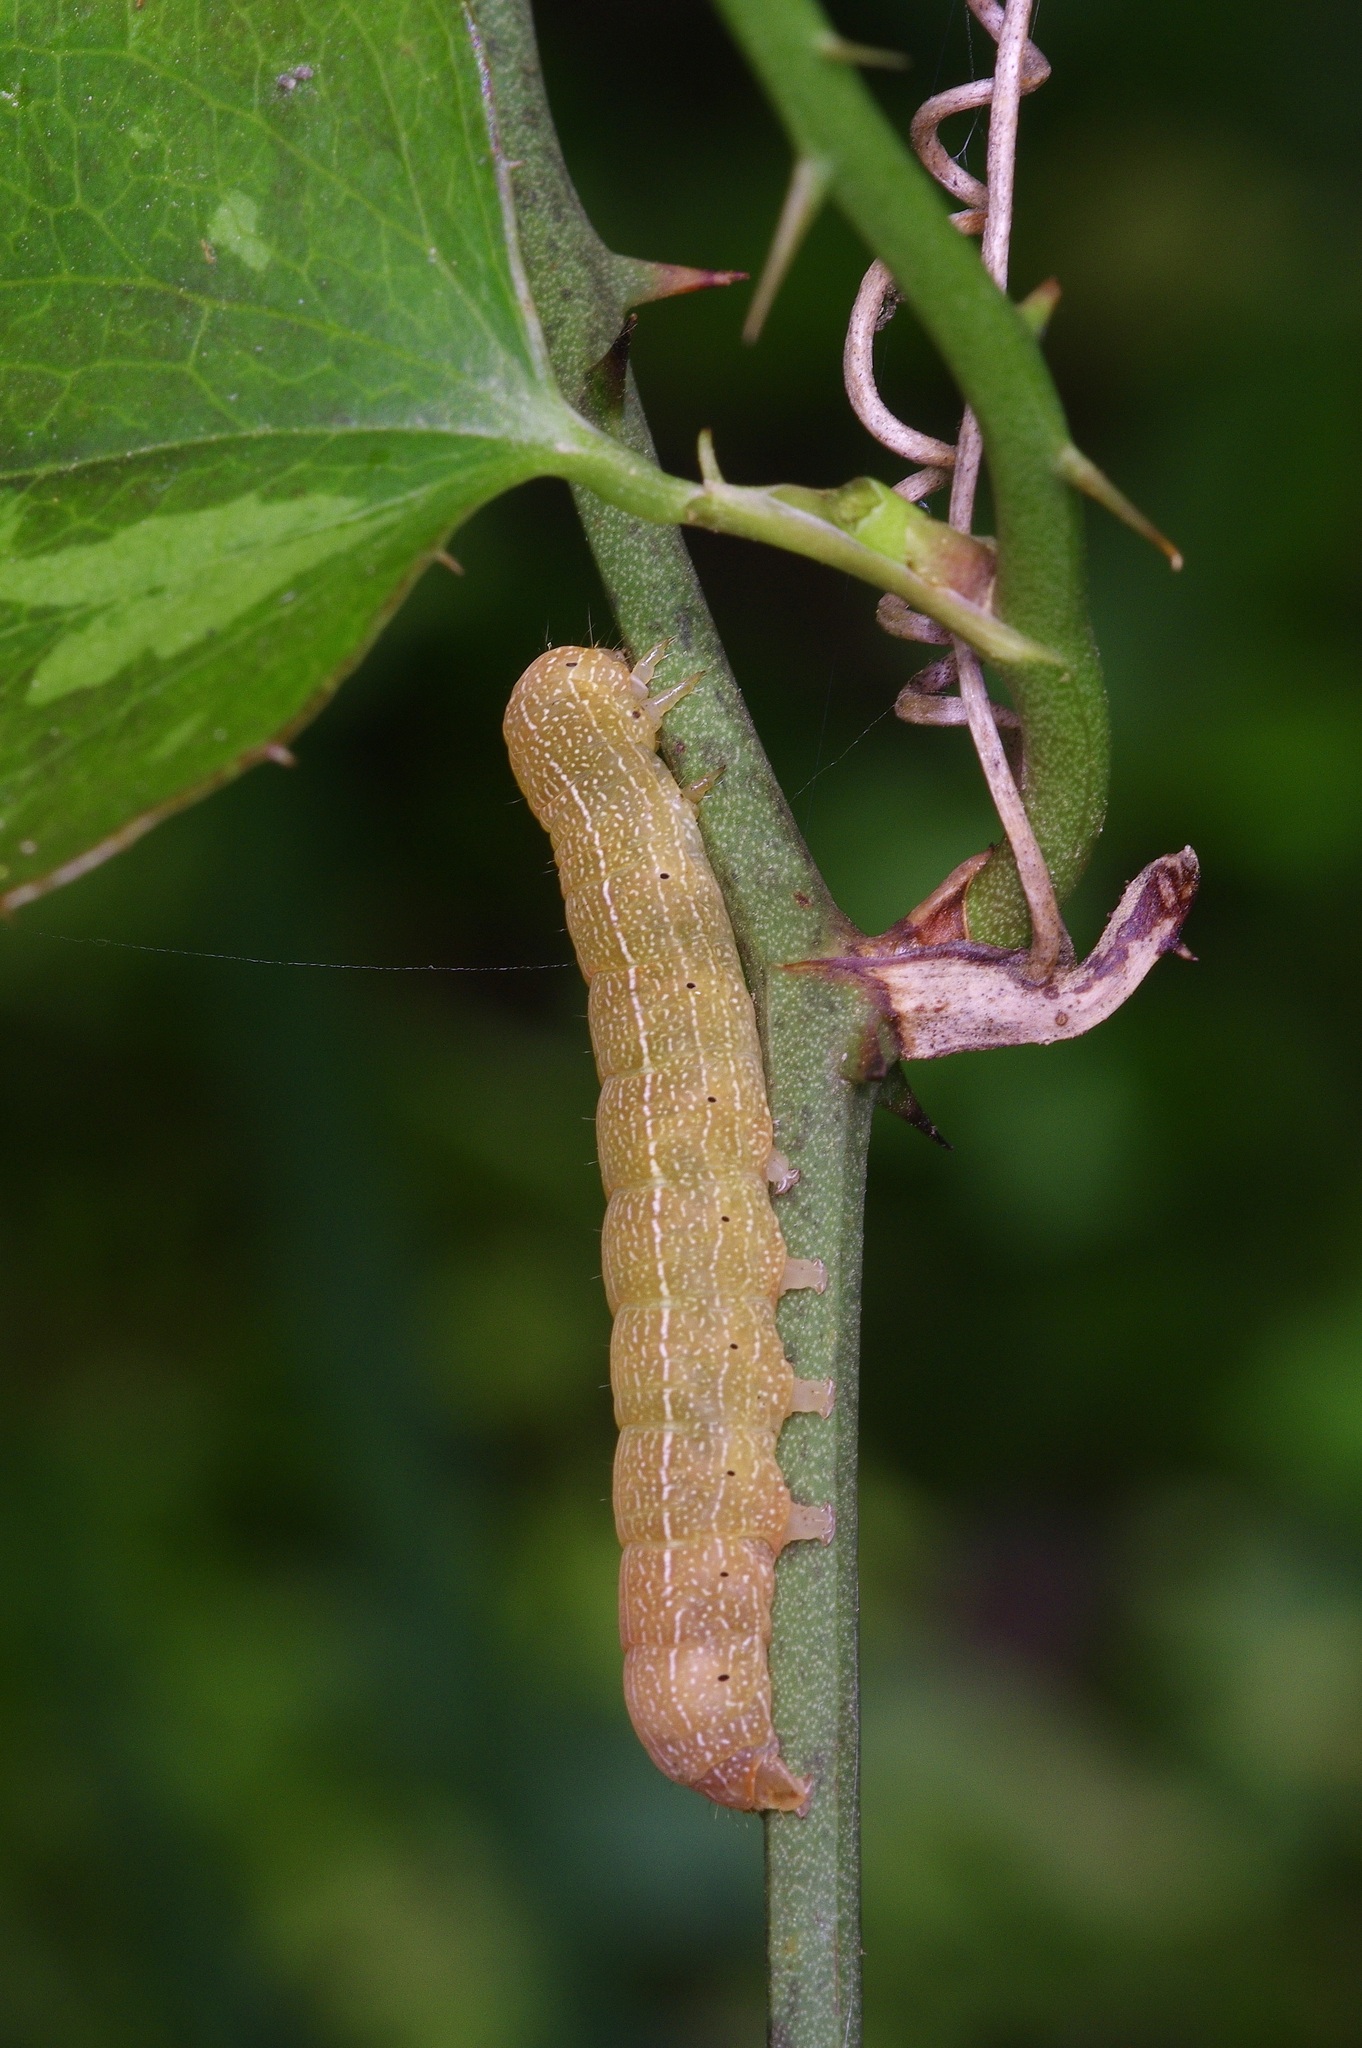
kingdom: Animalia
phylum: Arthropoda
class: Insecta
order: Lepidoptera
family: Noctuidae
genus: Achatia
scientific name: Achatia mucens
